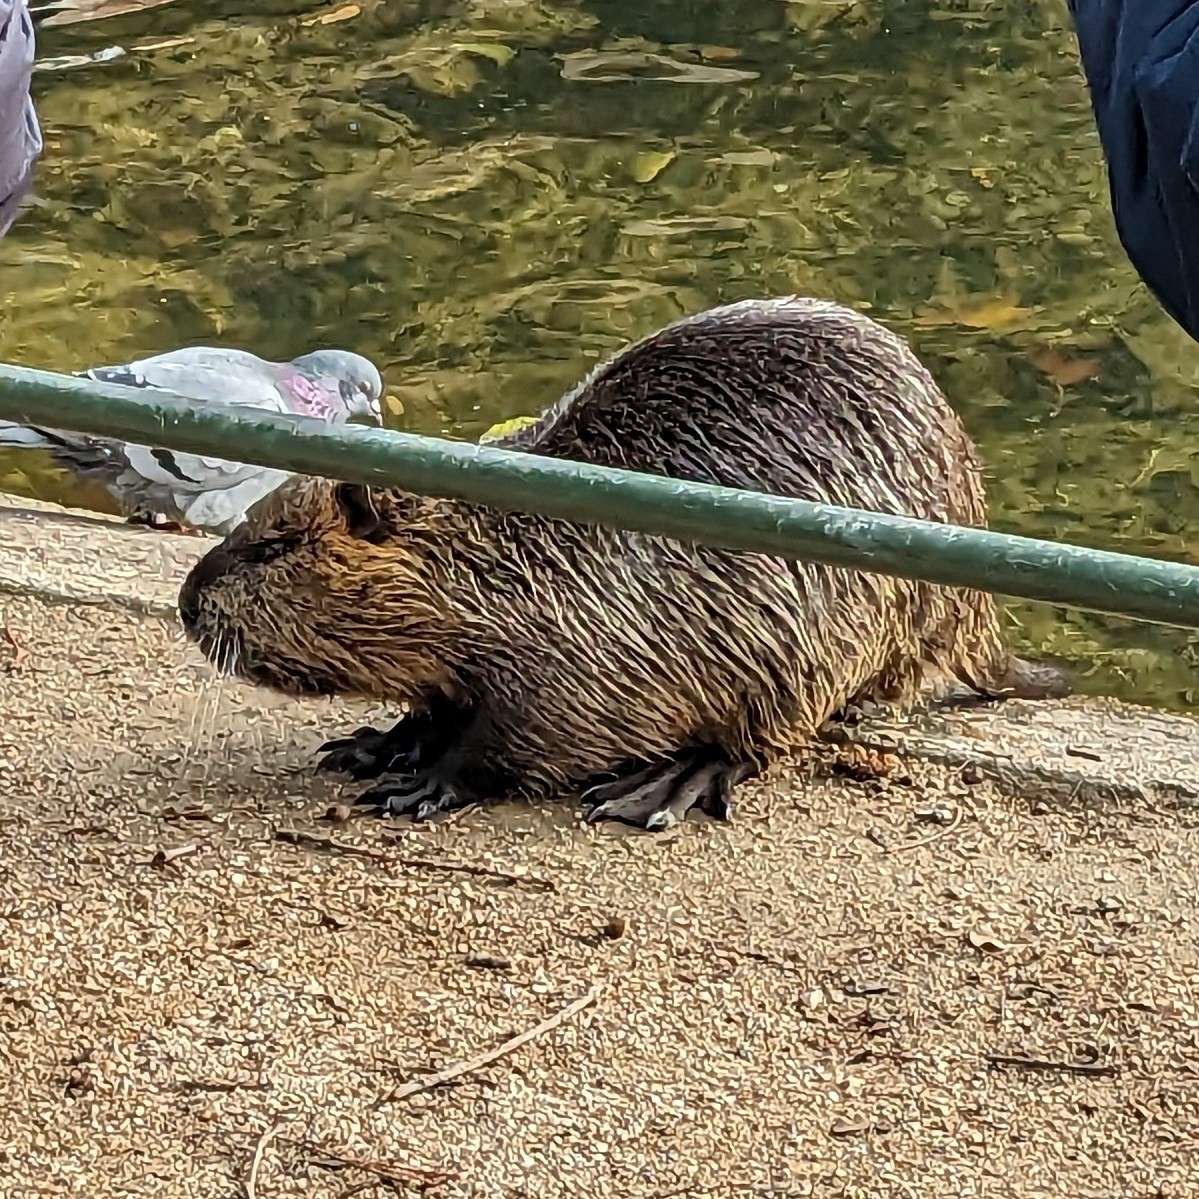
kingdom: Animalia
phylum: Chordata
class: Mammalia
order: Rodentia
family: Myocastoridae
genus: Myocastor
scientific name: Myocastor coypus
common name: Coypu
